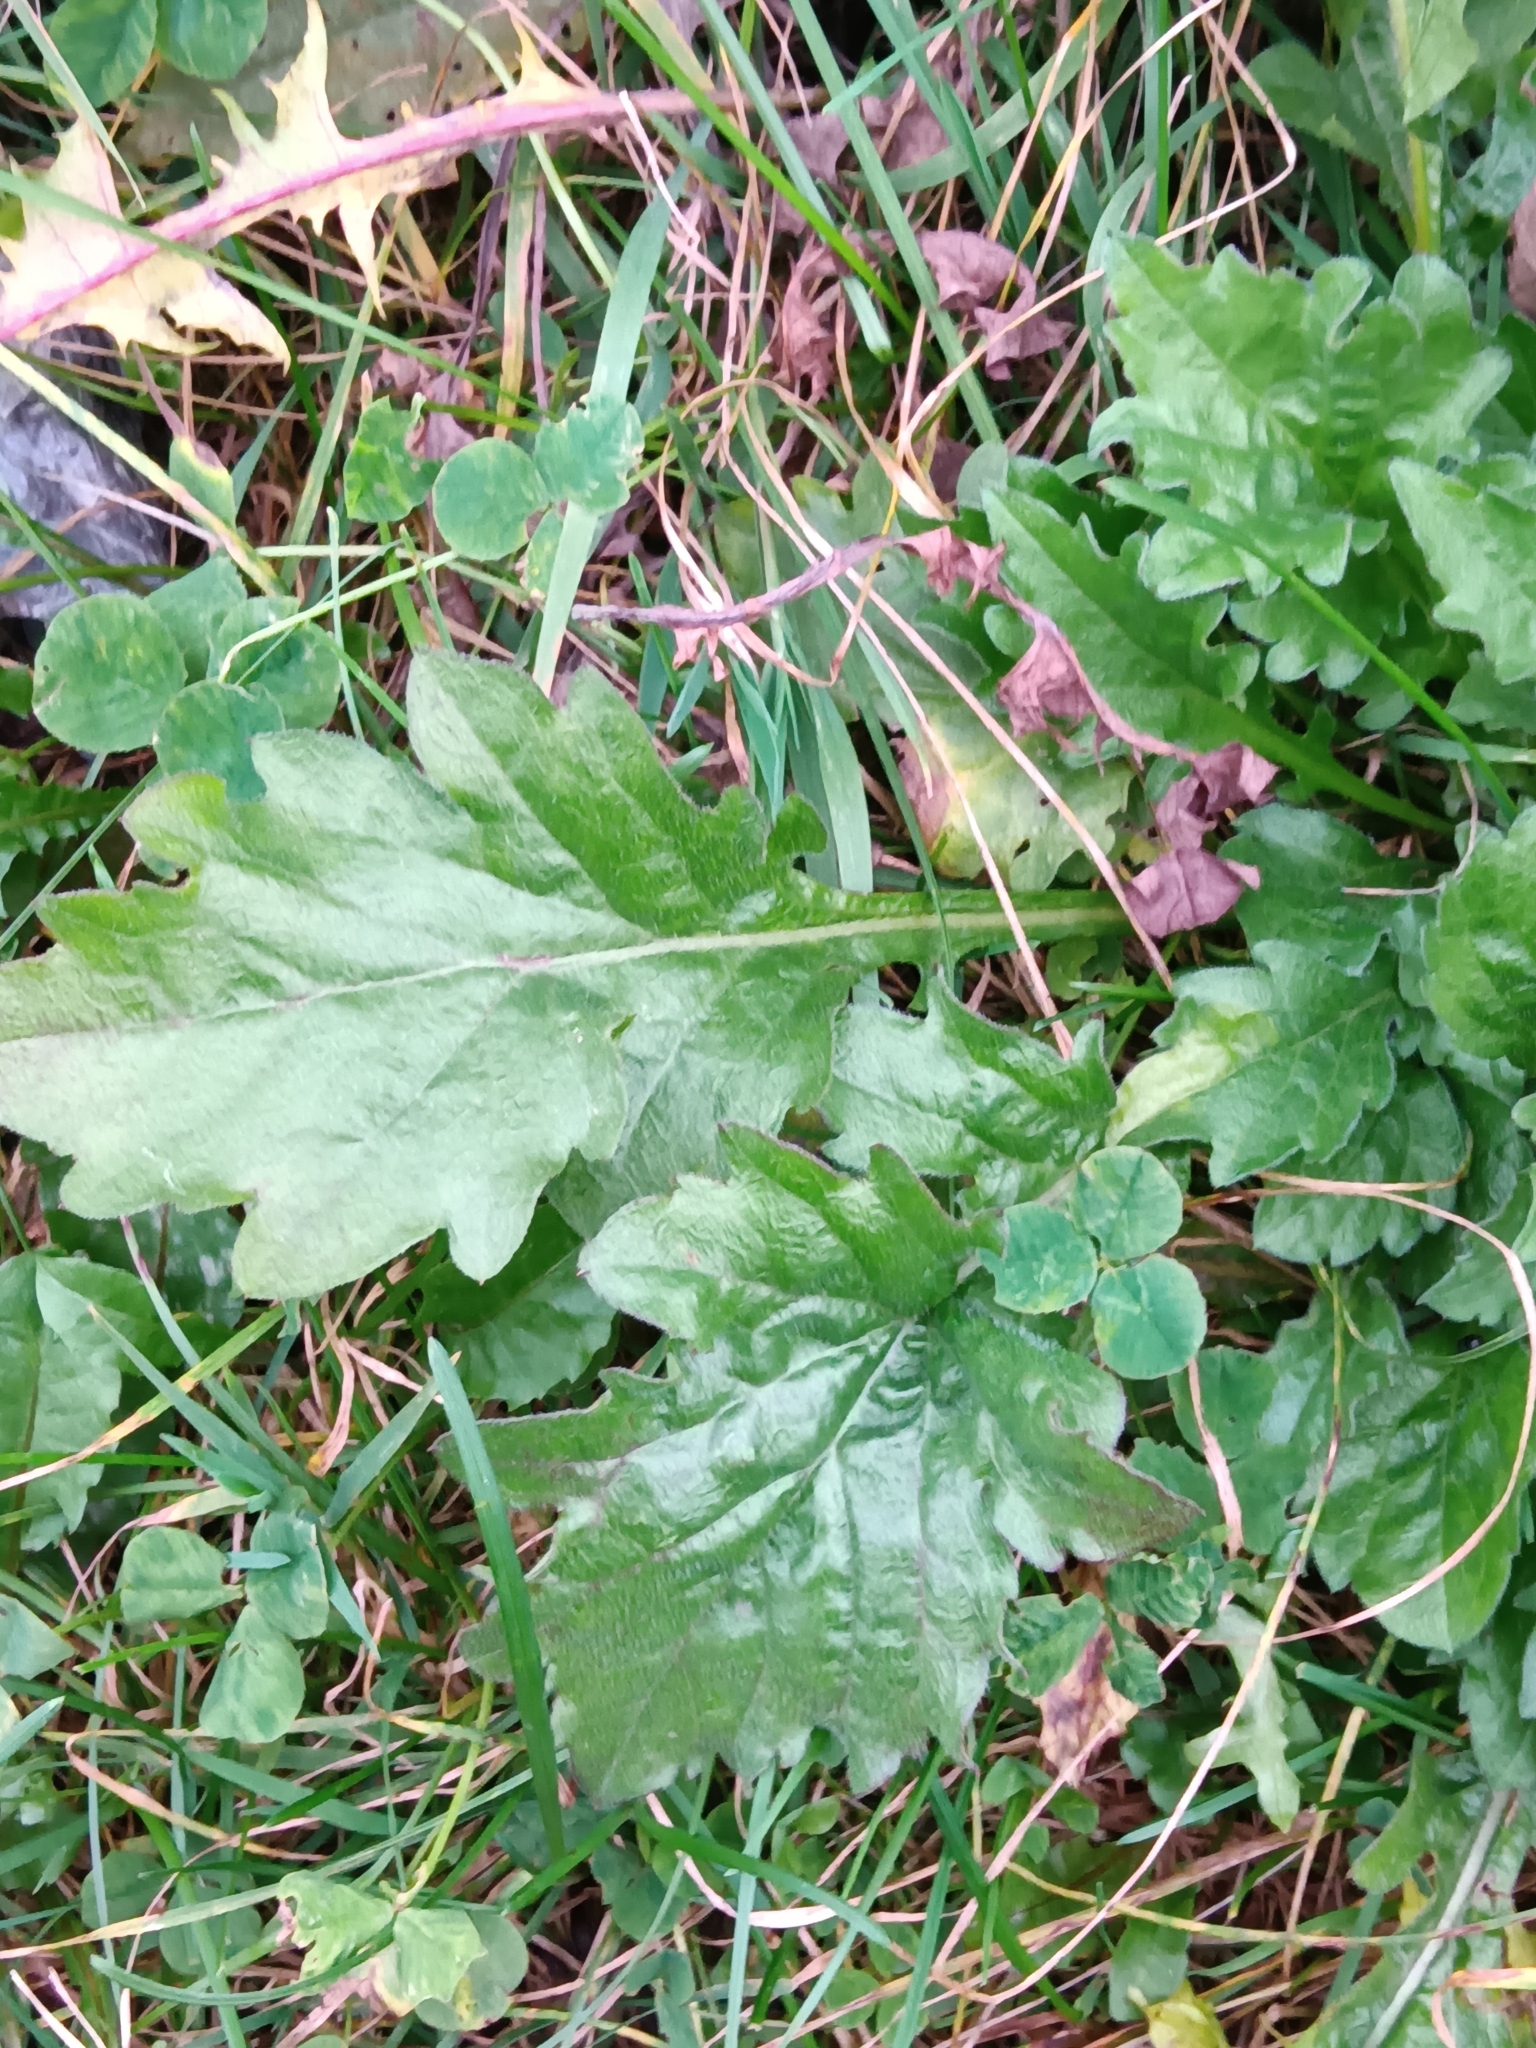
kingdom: Plantae
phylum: Tracheophyta
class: Magnoliopsida
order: Asterales
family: Asteraceae
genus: Erigeron
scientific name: Erigeron annuus
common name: Tall fleabane
